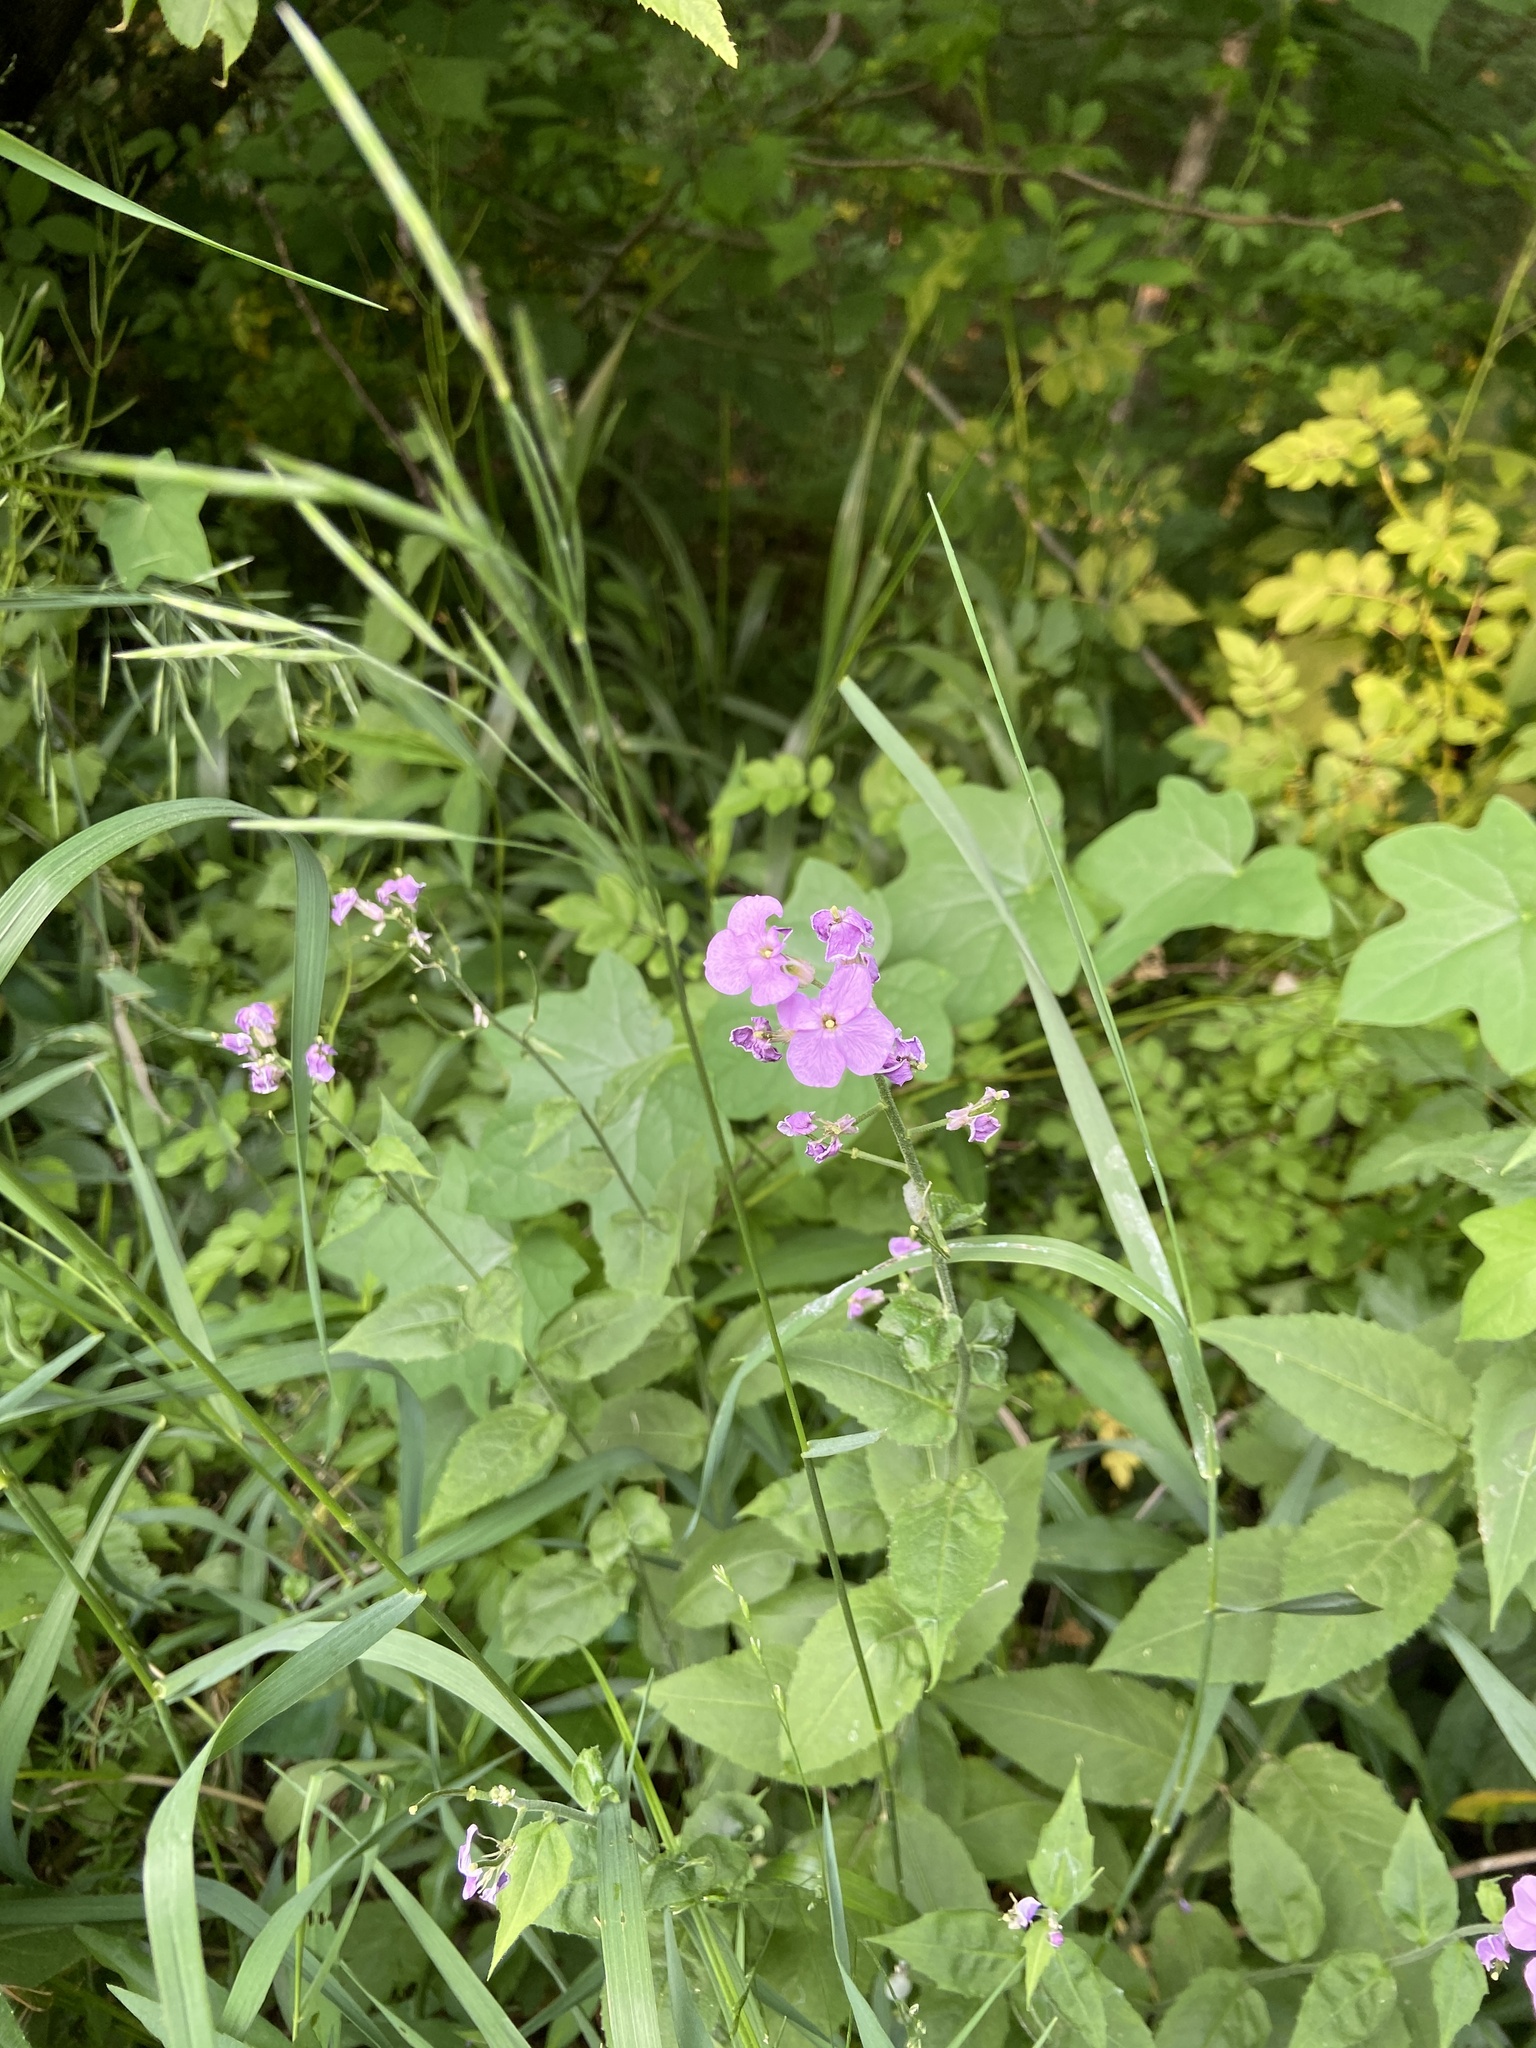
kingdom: Plantae
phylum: Tracheophyta
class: Magnoliopsida
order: Brassicales
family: Brassicaceae
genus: Hesperis
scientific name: Hesperis matronalis
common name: Dame's-violet
